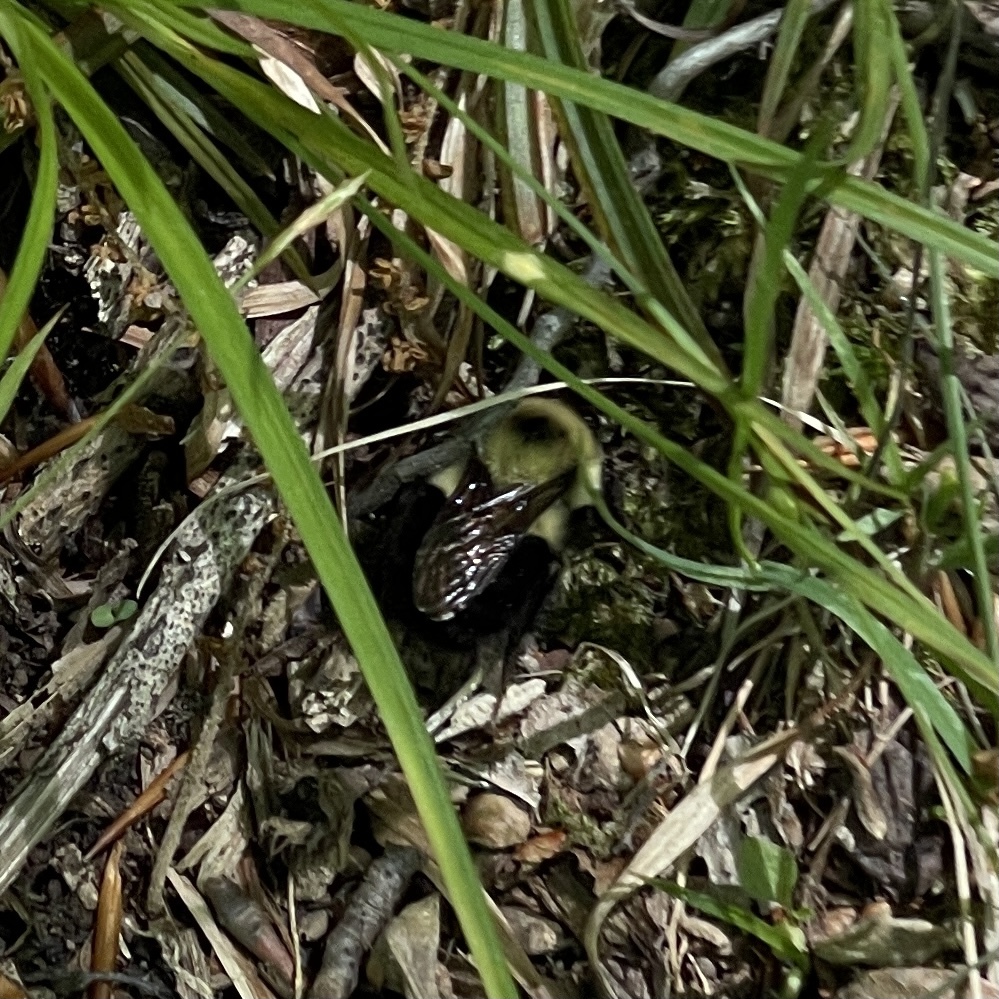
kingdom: Animalia
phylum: Arthropoda
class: Insecta
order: Hymenoptera
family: Apidae
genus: Bombus
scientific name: Bombus bimaculatus
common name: Two-spotted bumble bee
